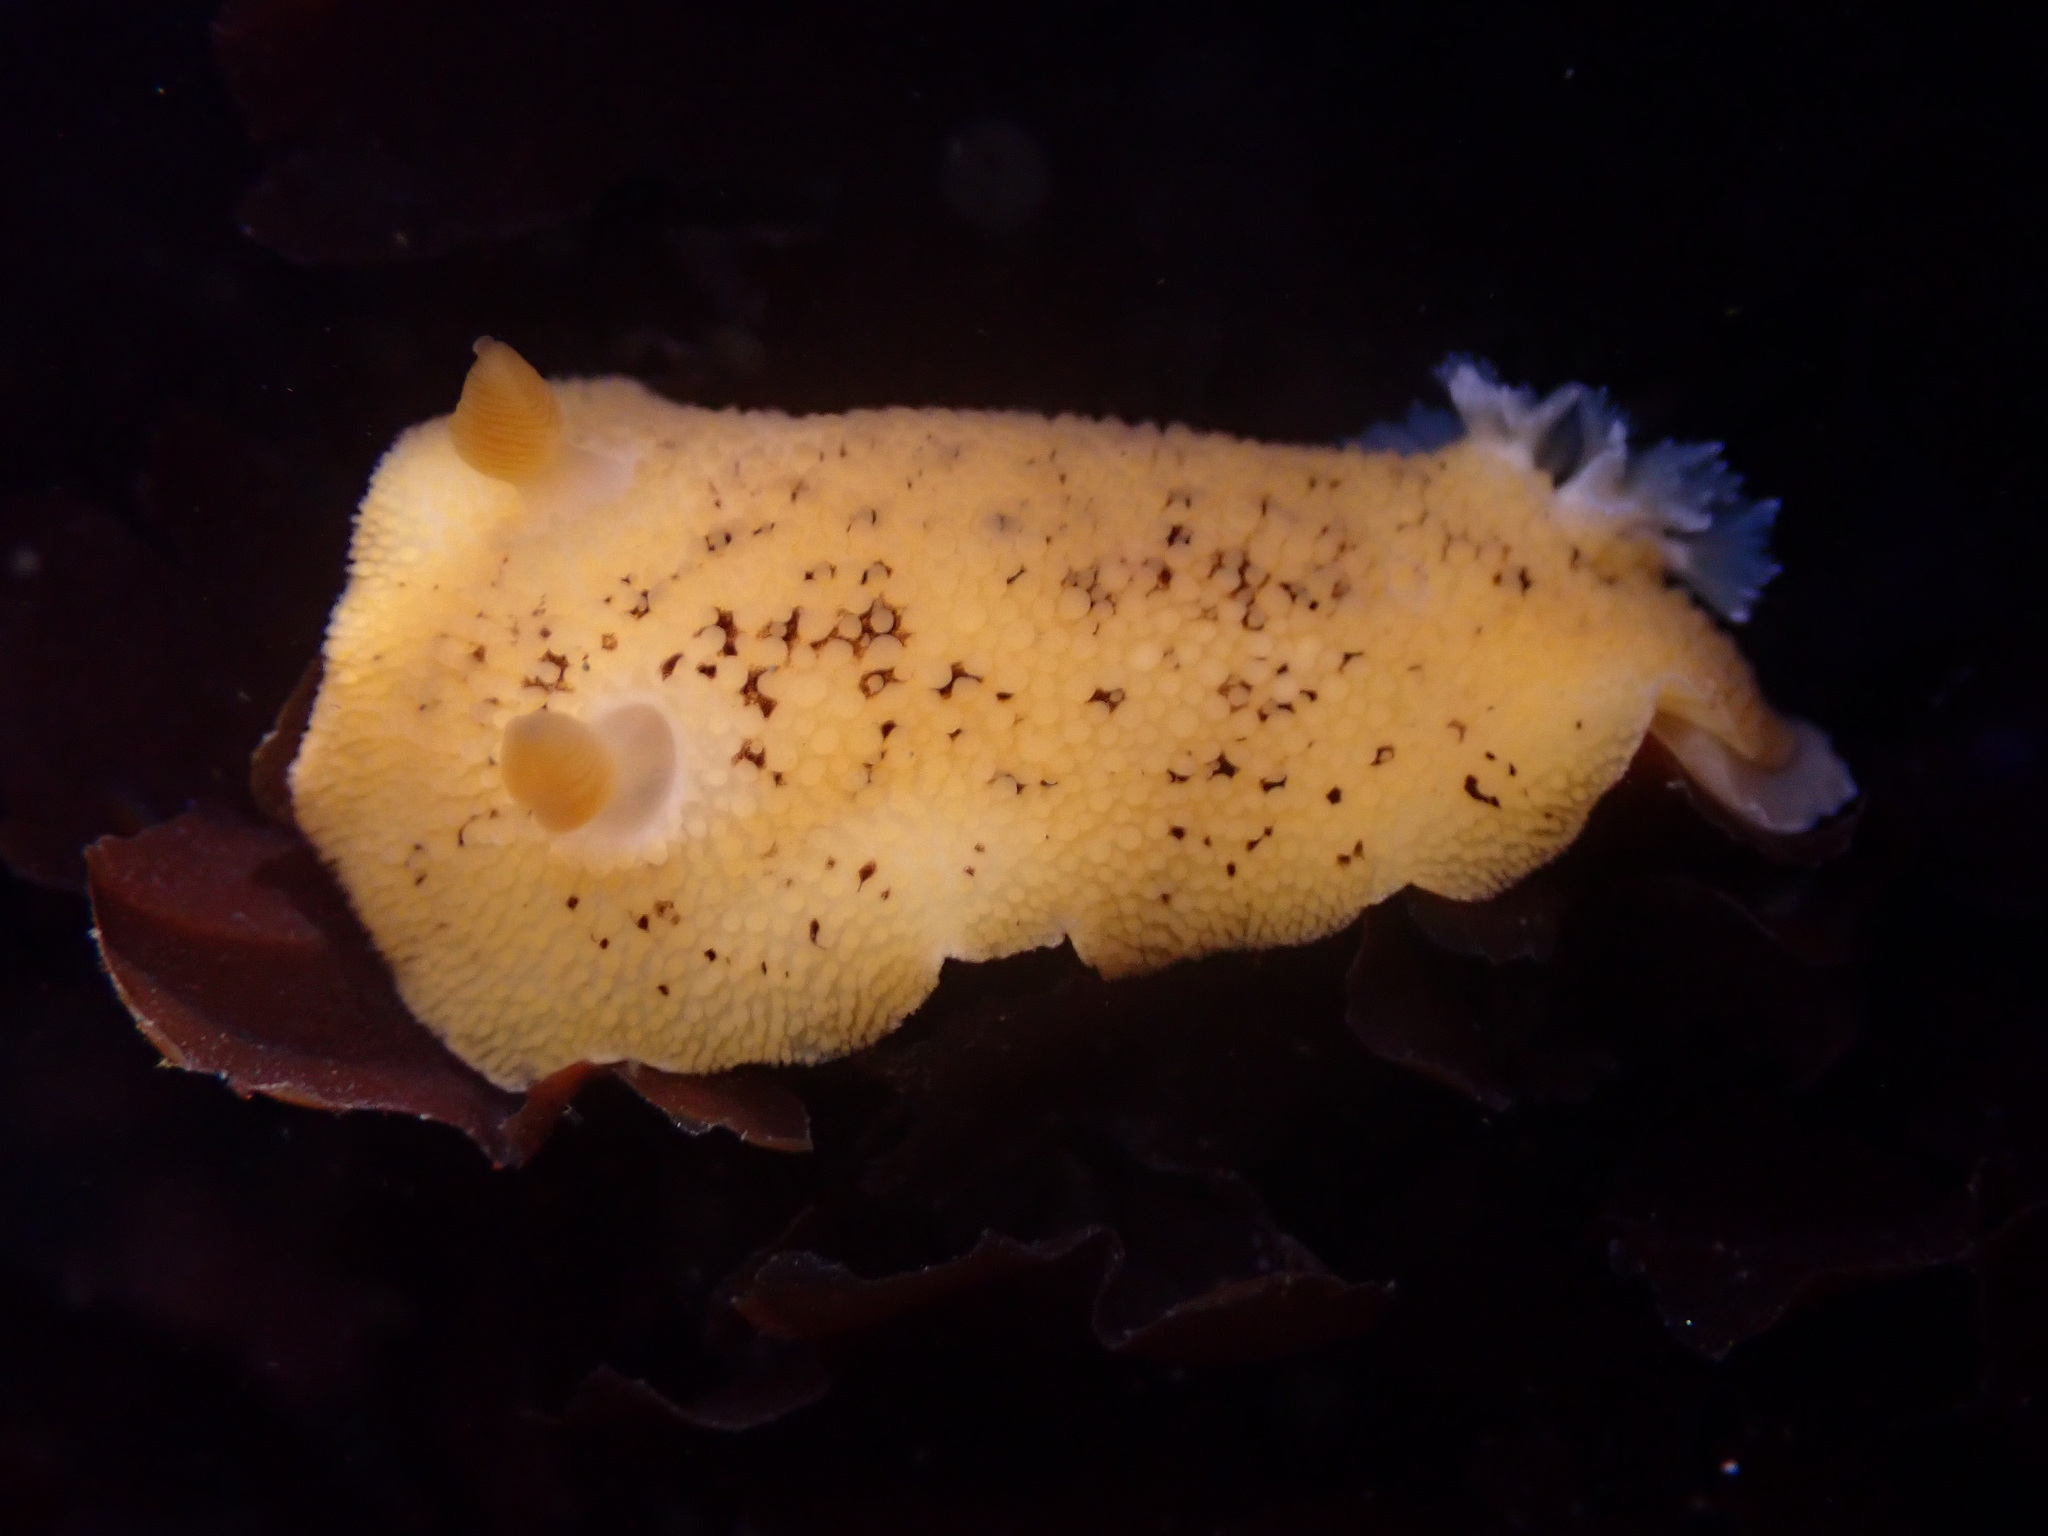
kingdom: Animalia
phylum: Mollusca
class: Gastropoda
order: Nudibranchia
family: Discodorididae
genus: Peltodoris
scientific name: Peltodoris nobilis
